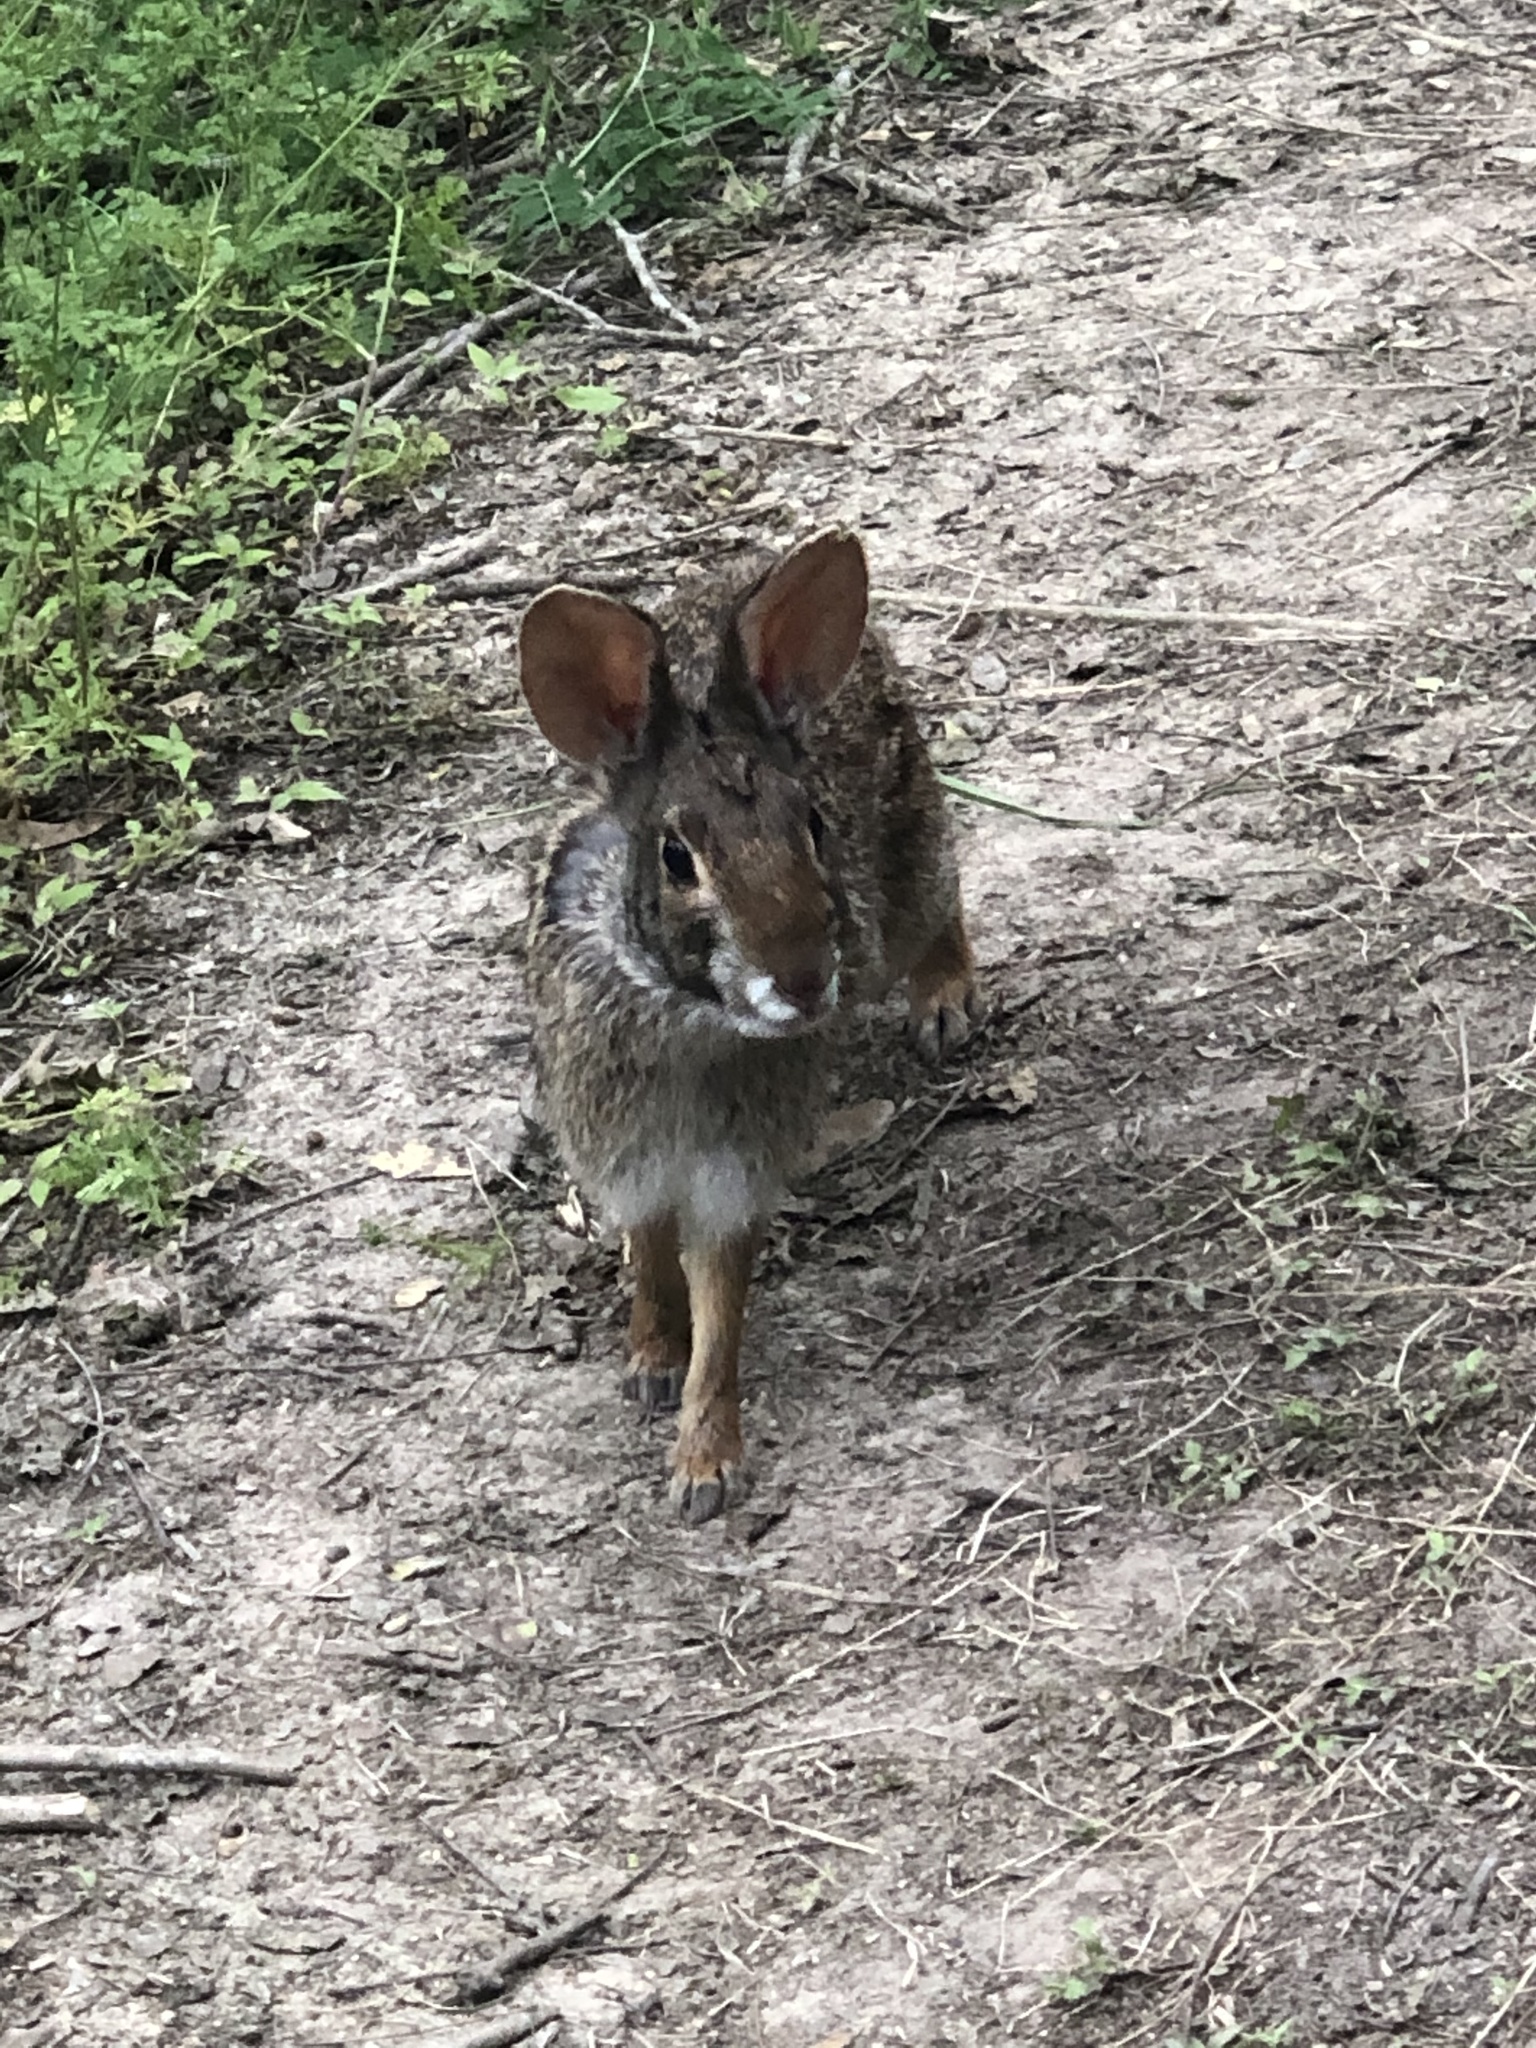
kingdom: Animalia
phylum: Chordata
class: Mammalia
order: Lagomorpha
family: Leporidae
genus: Sylvilagus
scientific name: Sylvilagus aquaticus
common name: Swamp rabbit
